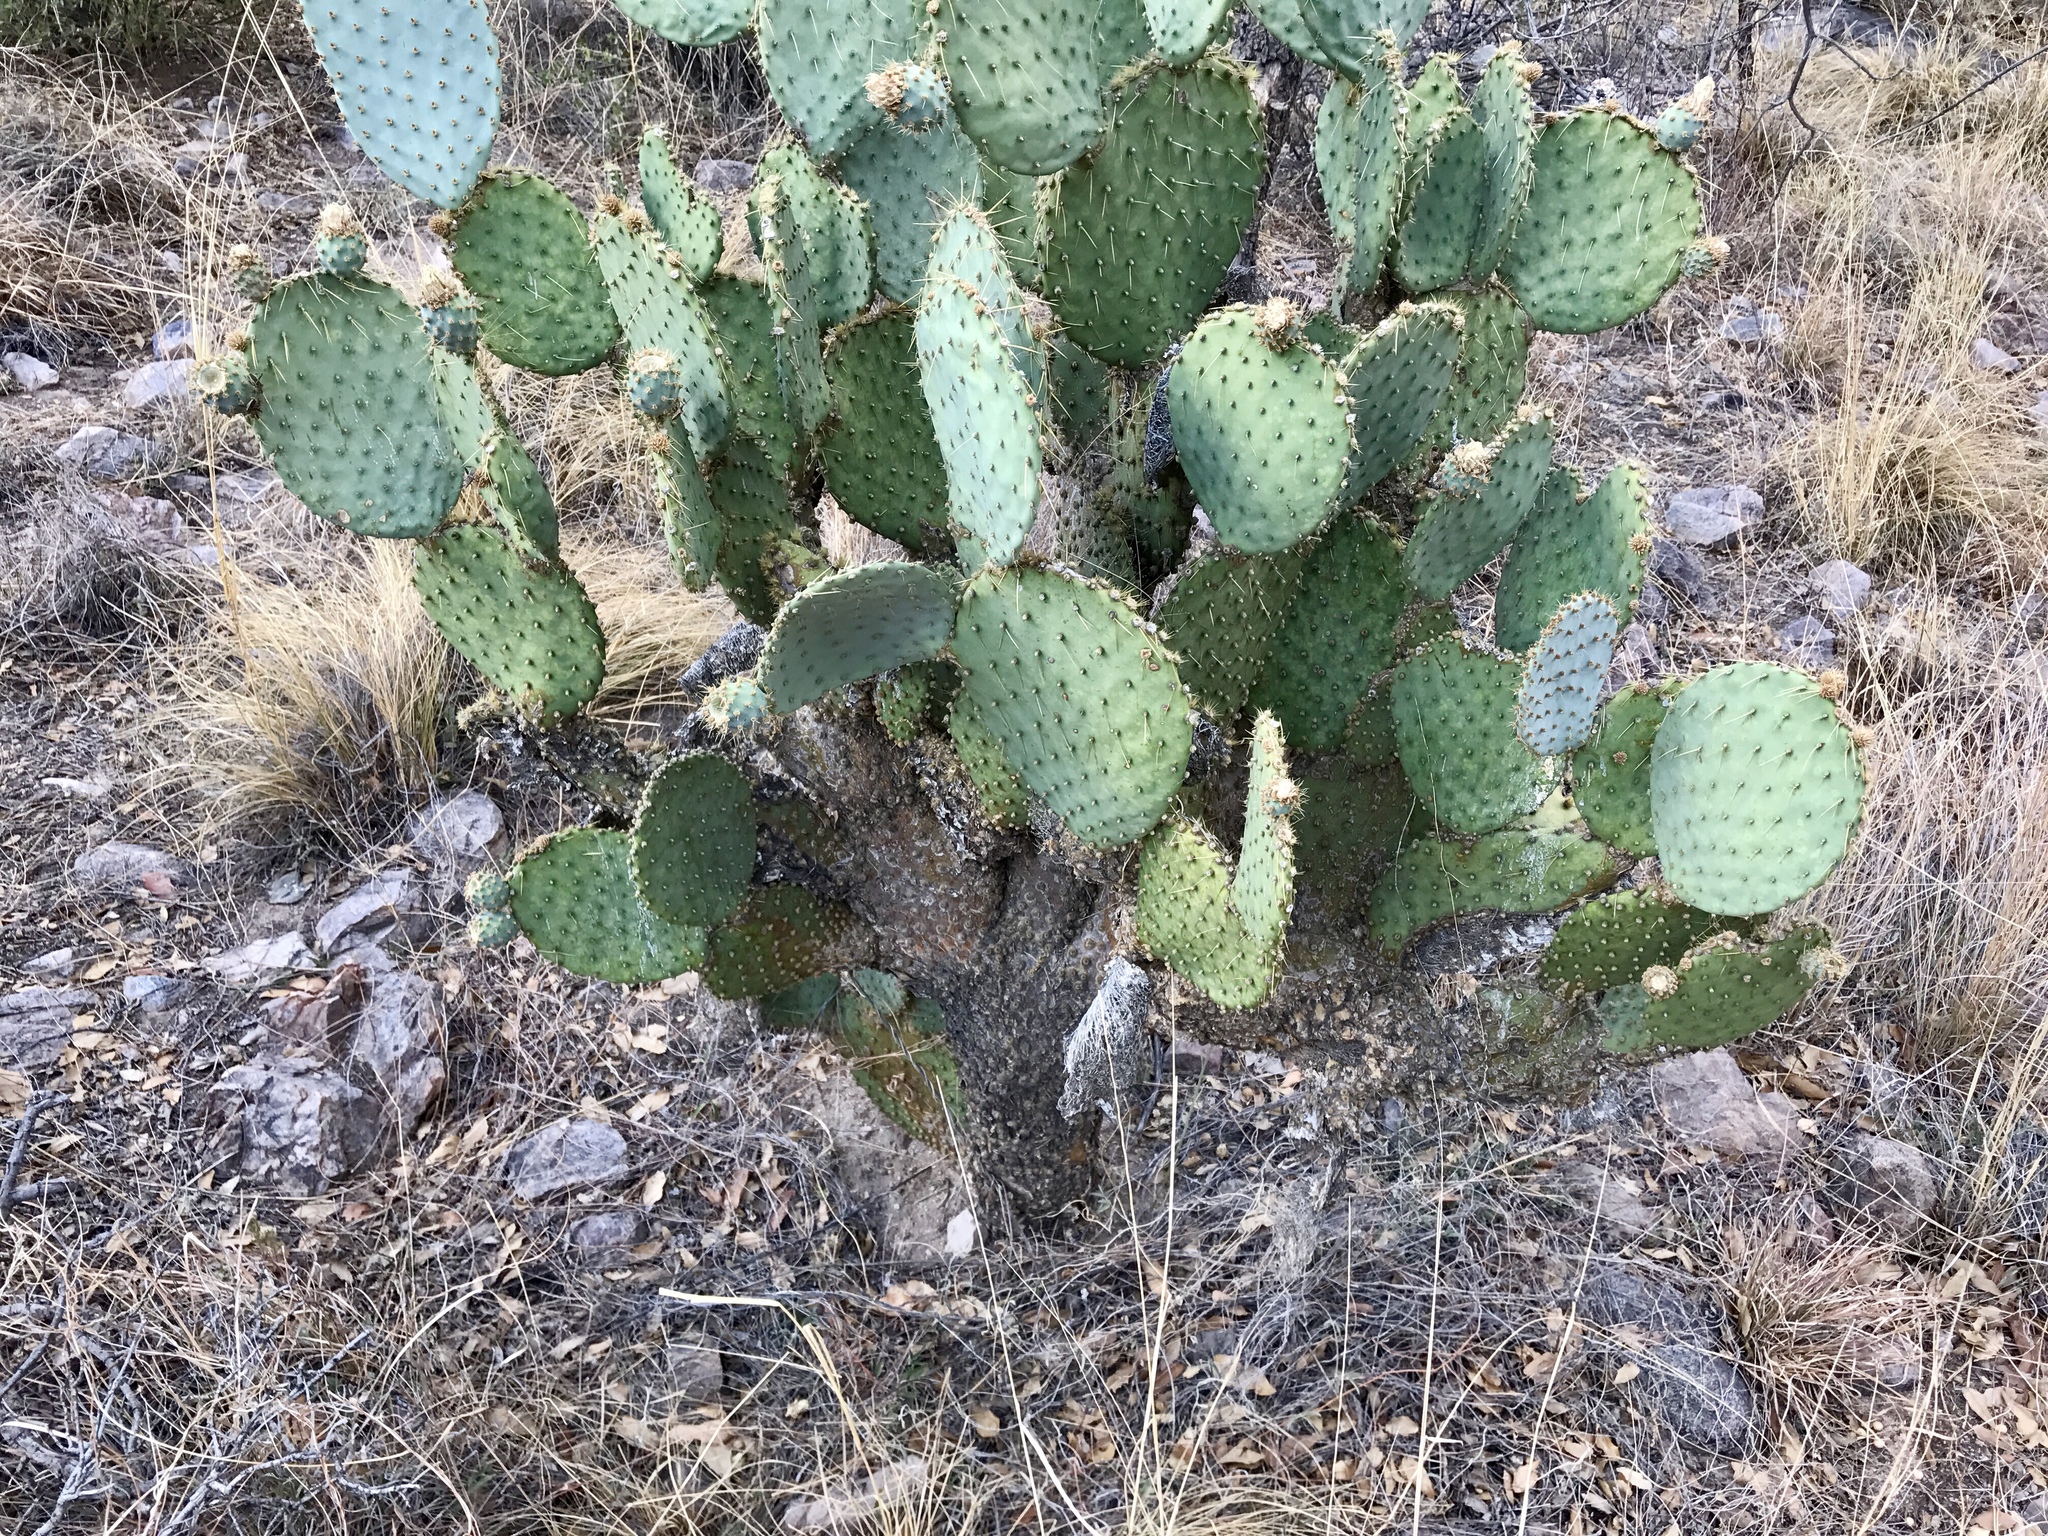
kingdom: Plantae
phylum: Tracheophyta
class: Magnoliopsida
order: Caryophyllales
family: Cactaceae
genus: Opuntia
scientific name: Opuntia chlorotica
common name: Dollar-joint prickly-pear
